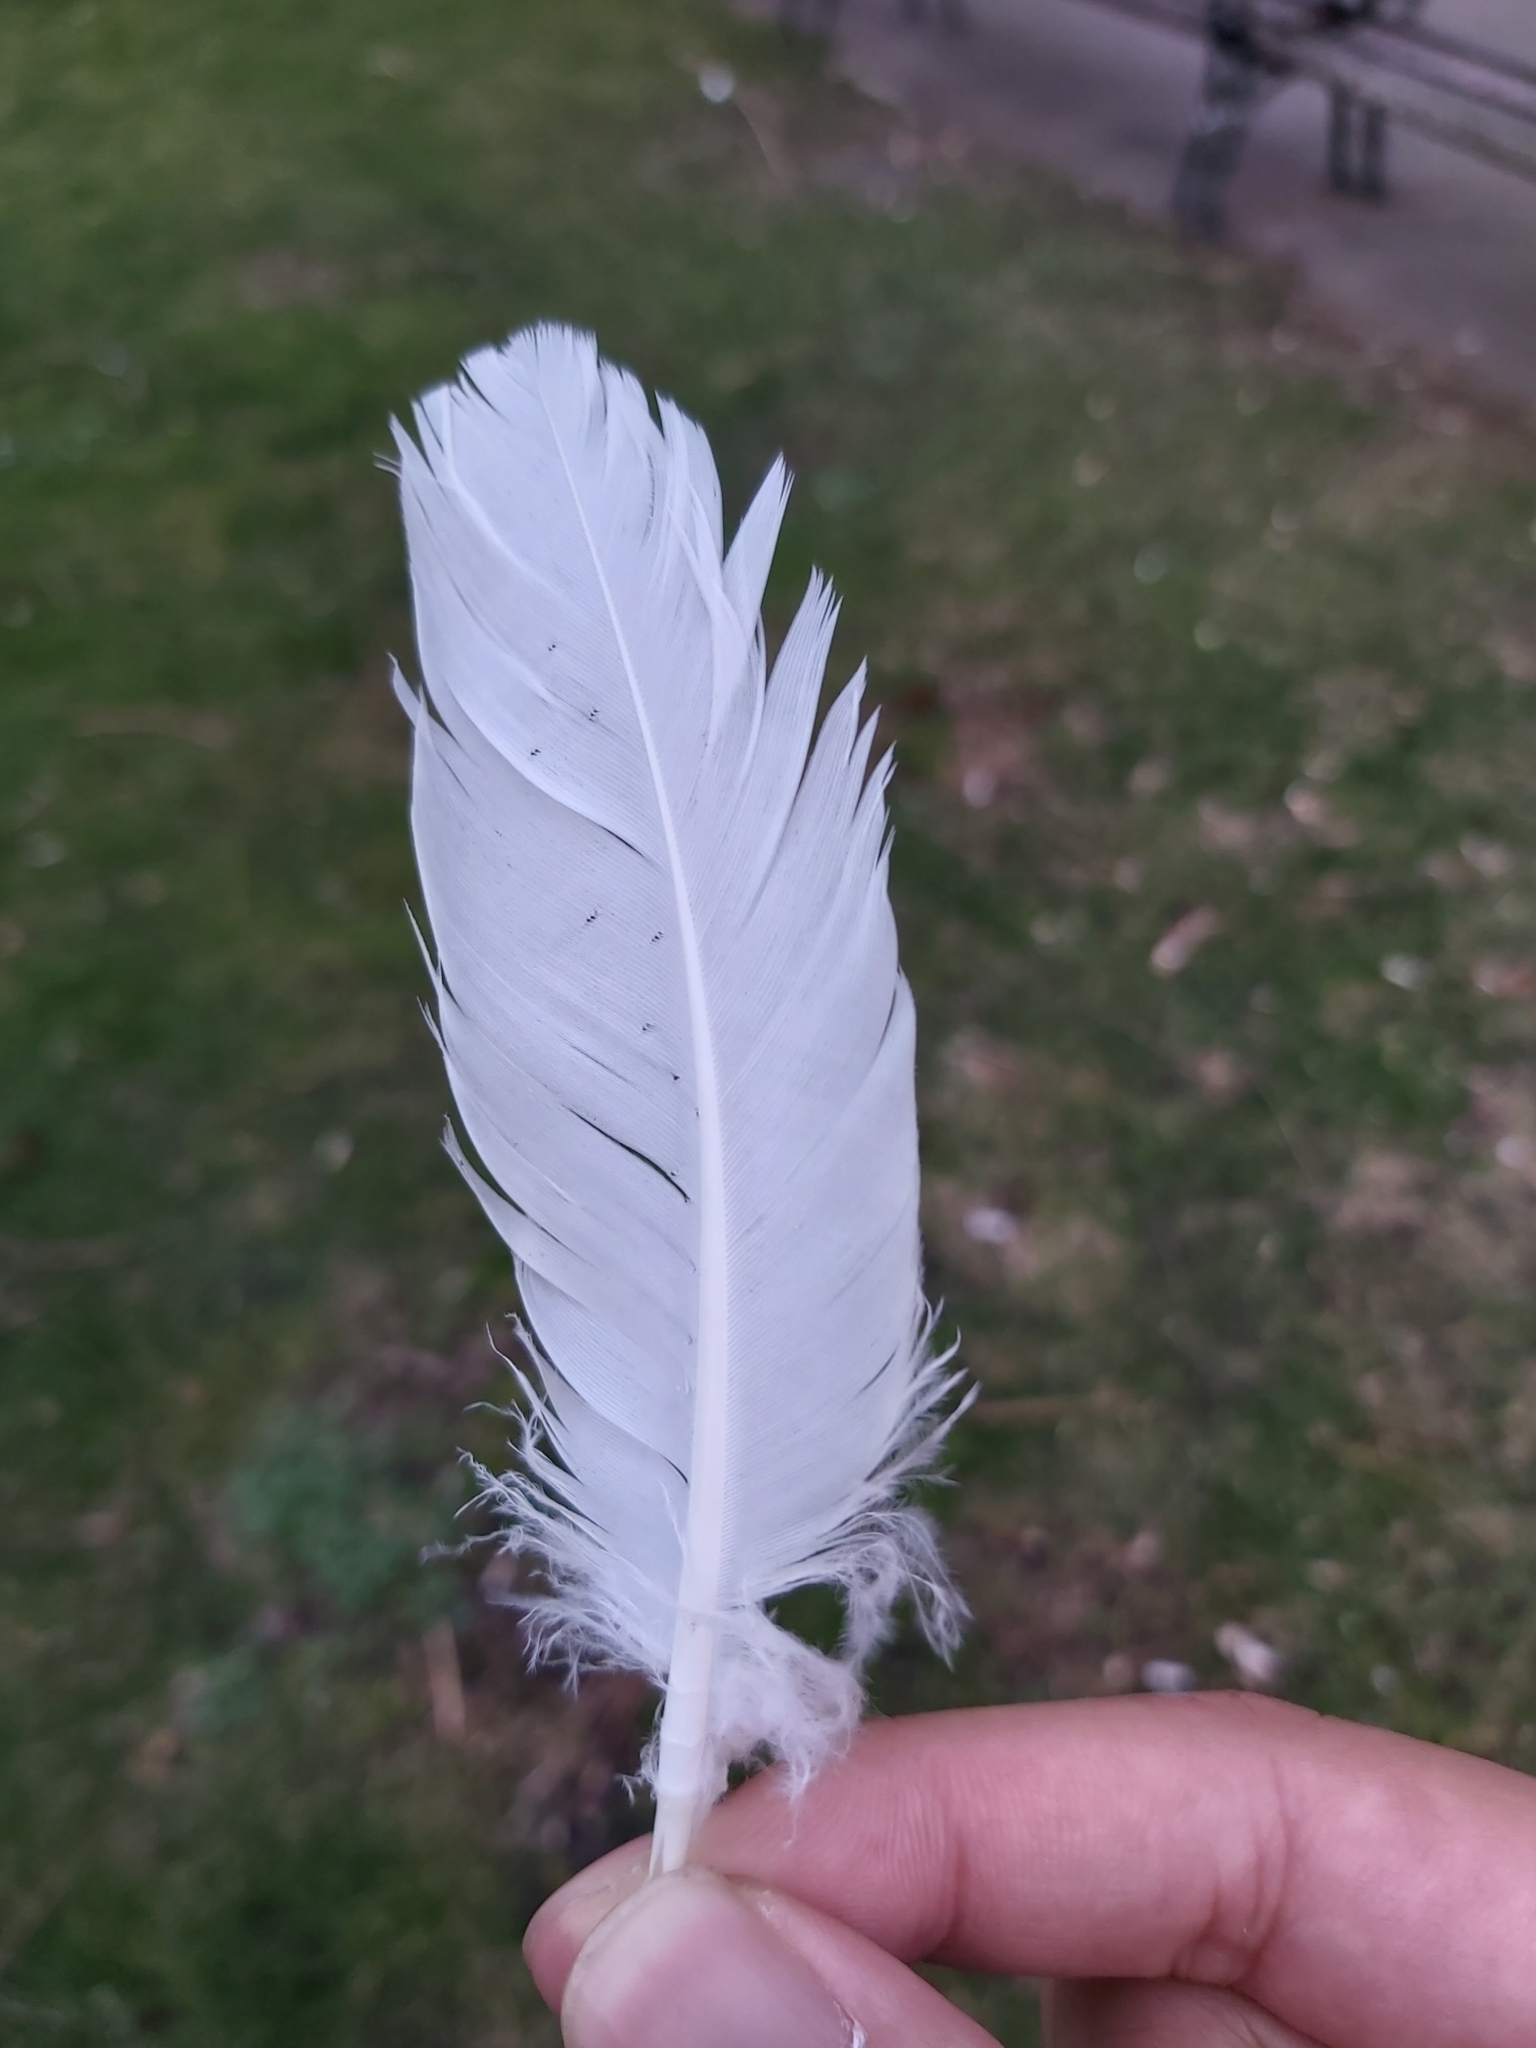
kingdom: Animalia
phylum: Chordata
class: Aves
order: Columbiformes
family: Columbidae
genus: Columba
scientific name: Columba livia
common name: Rock pigeon
